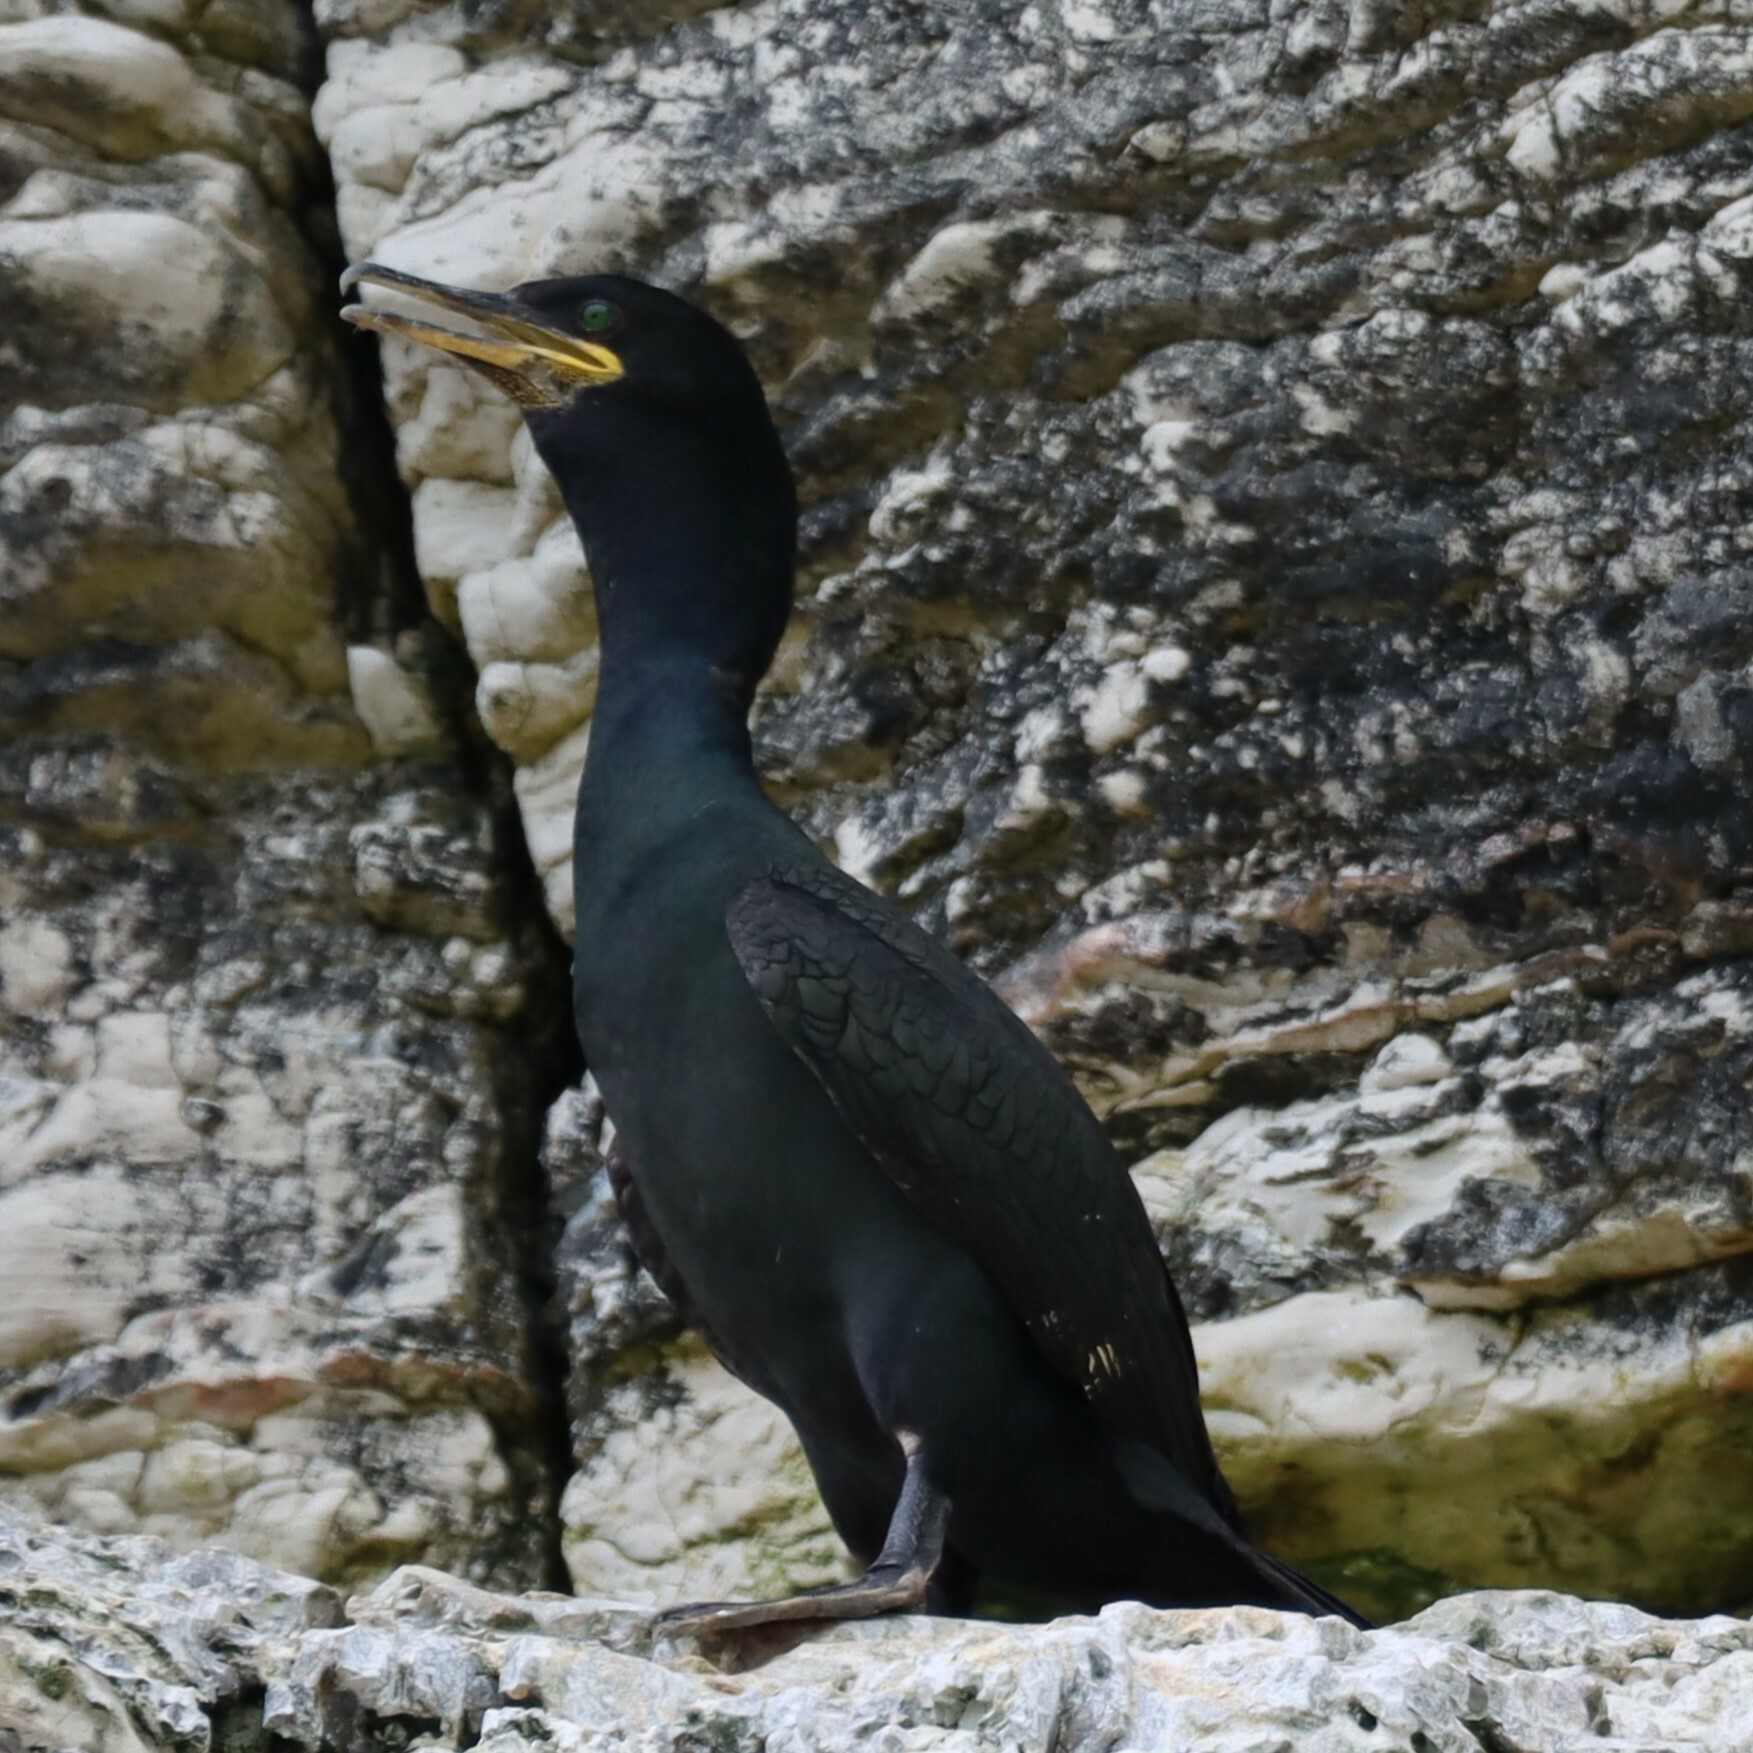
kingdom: Animalia
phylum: Chordata
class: Aves
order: Suliformes
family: Phalacrocoracidae
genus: Phalacrocorax
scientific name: Phalacrocorax aristotelis
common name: European shag
